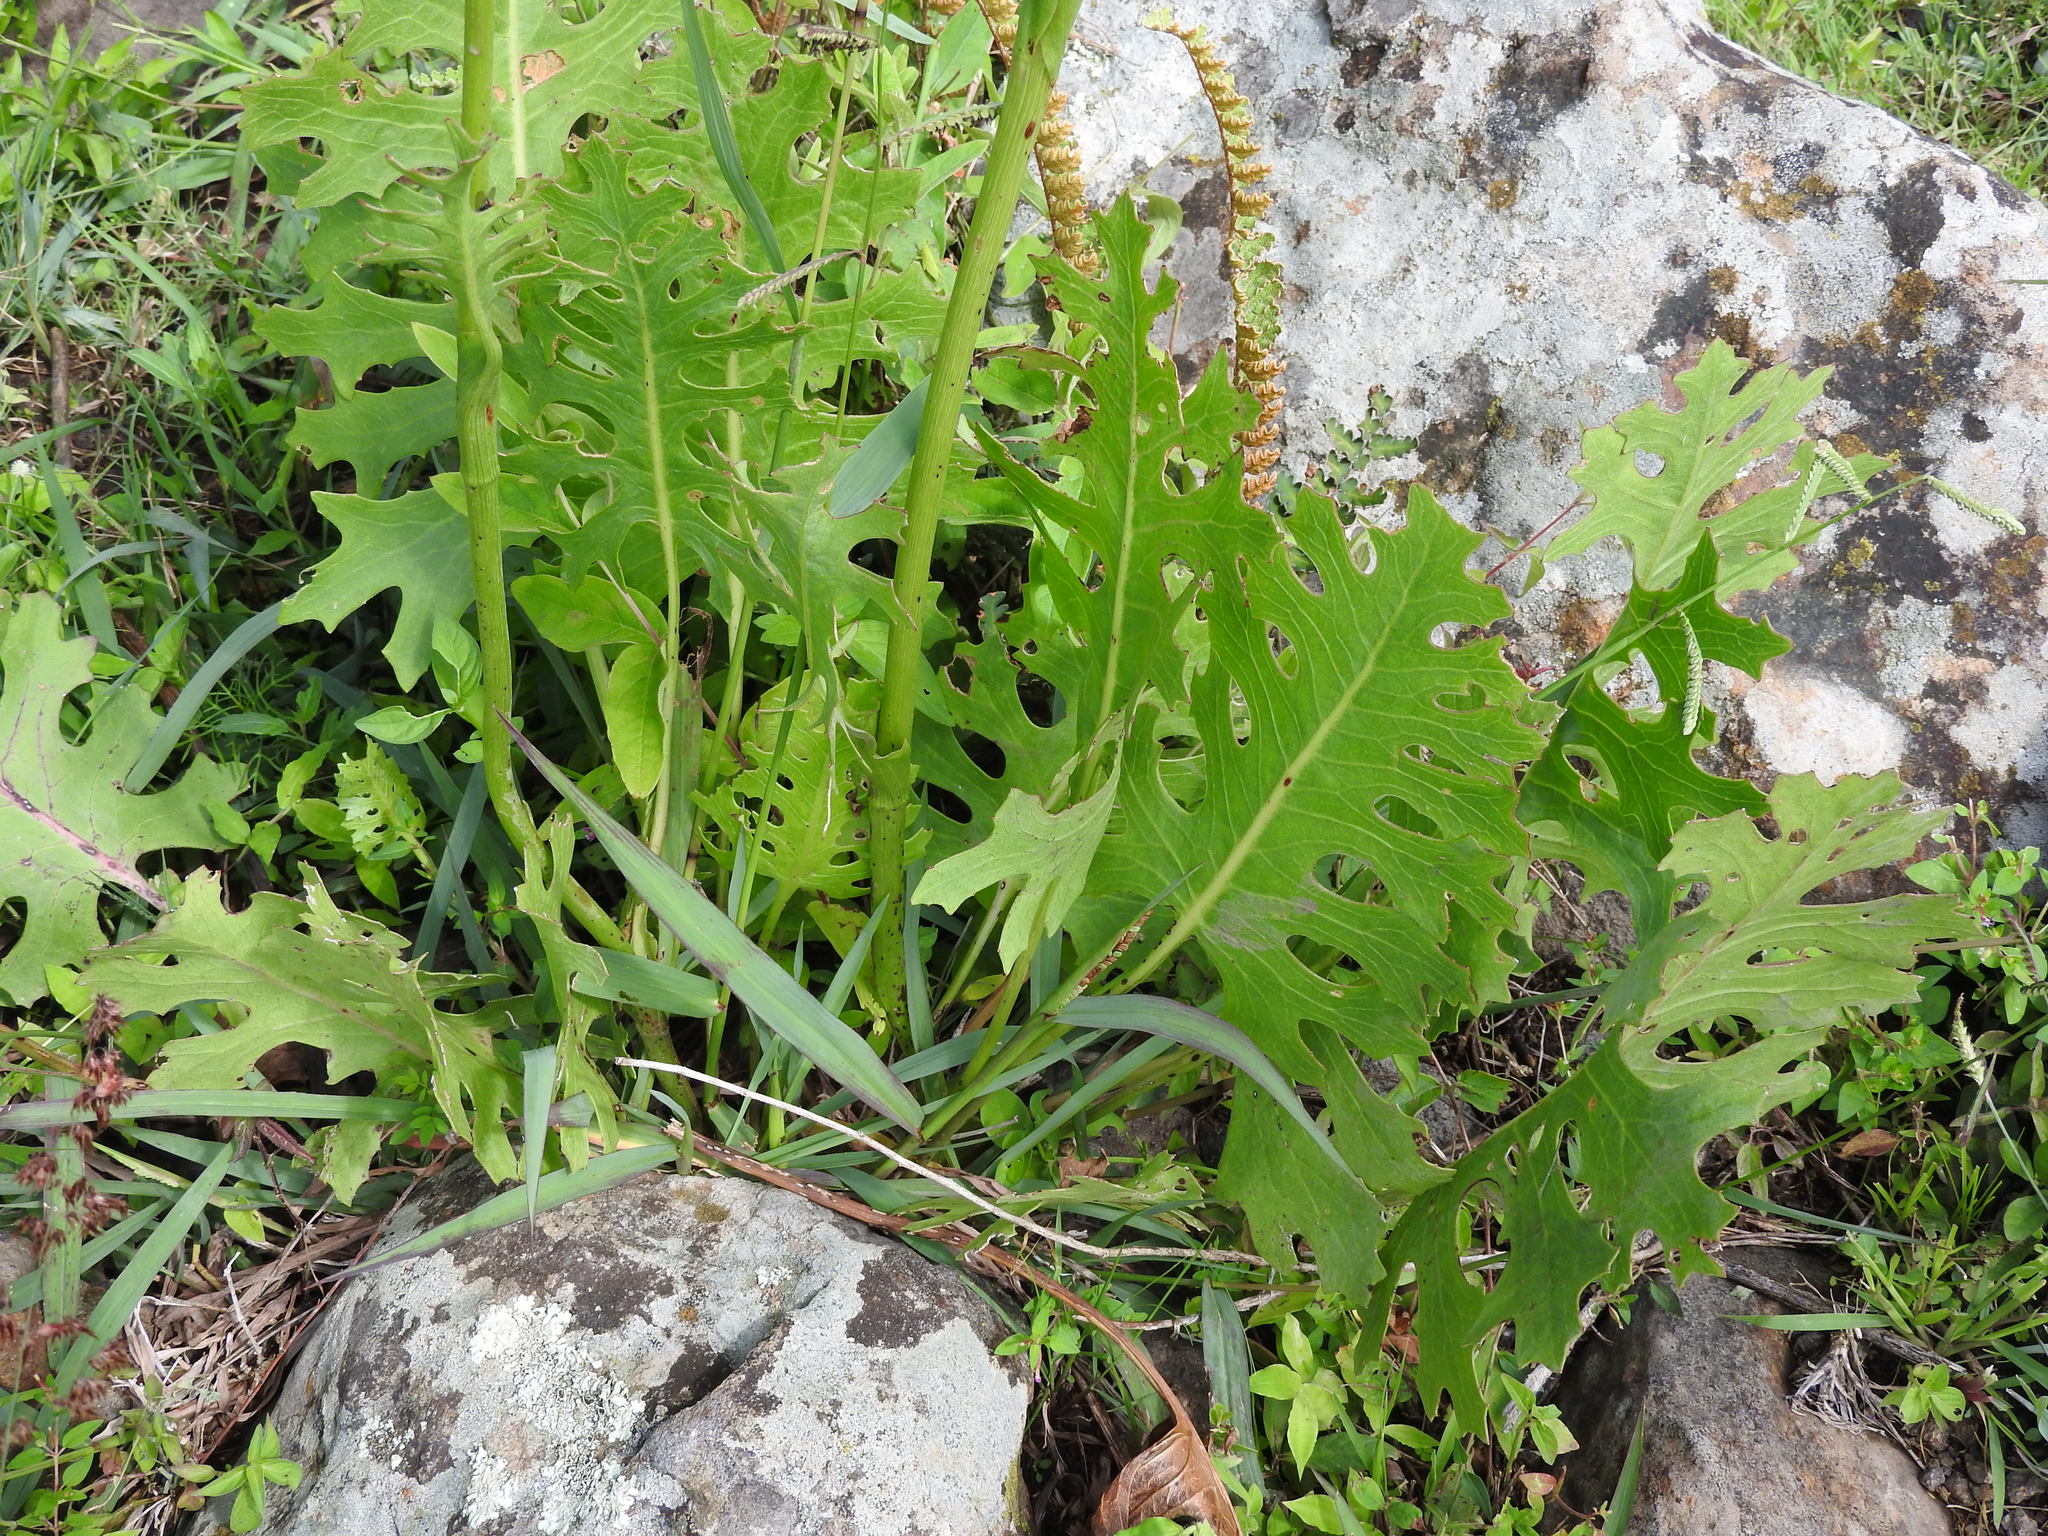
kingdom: Plantae
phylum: Tracheophyta
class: Magnoliopsida
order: Asterales
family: Asteraceae
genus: Psacalium
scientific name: Psacalium sinuatum
